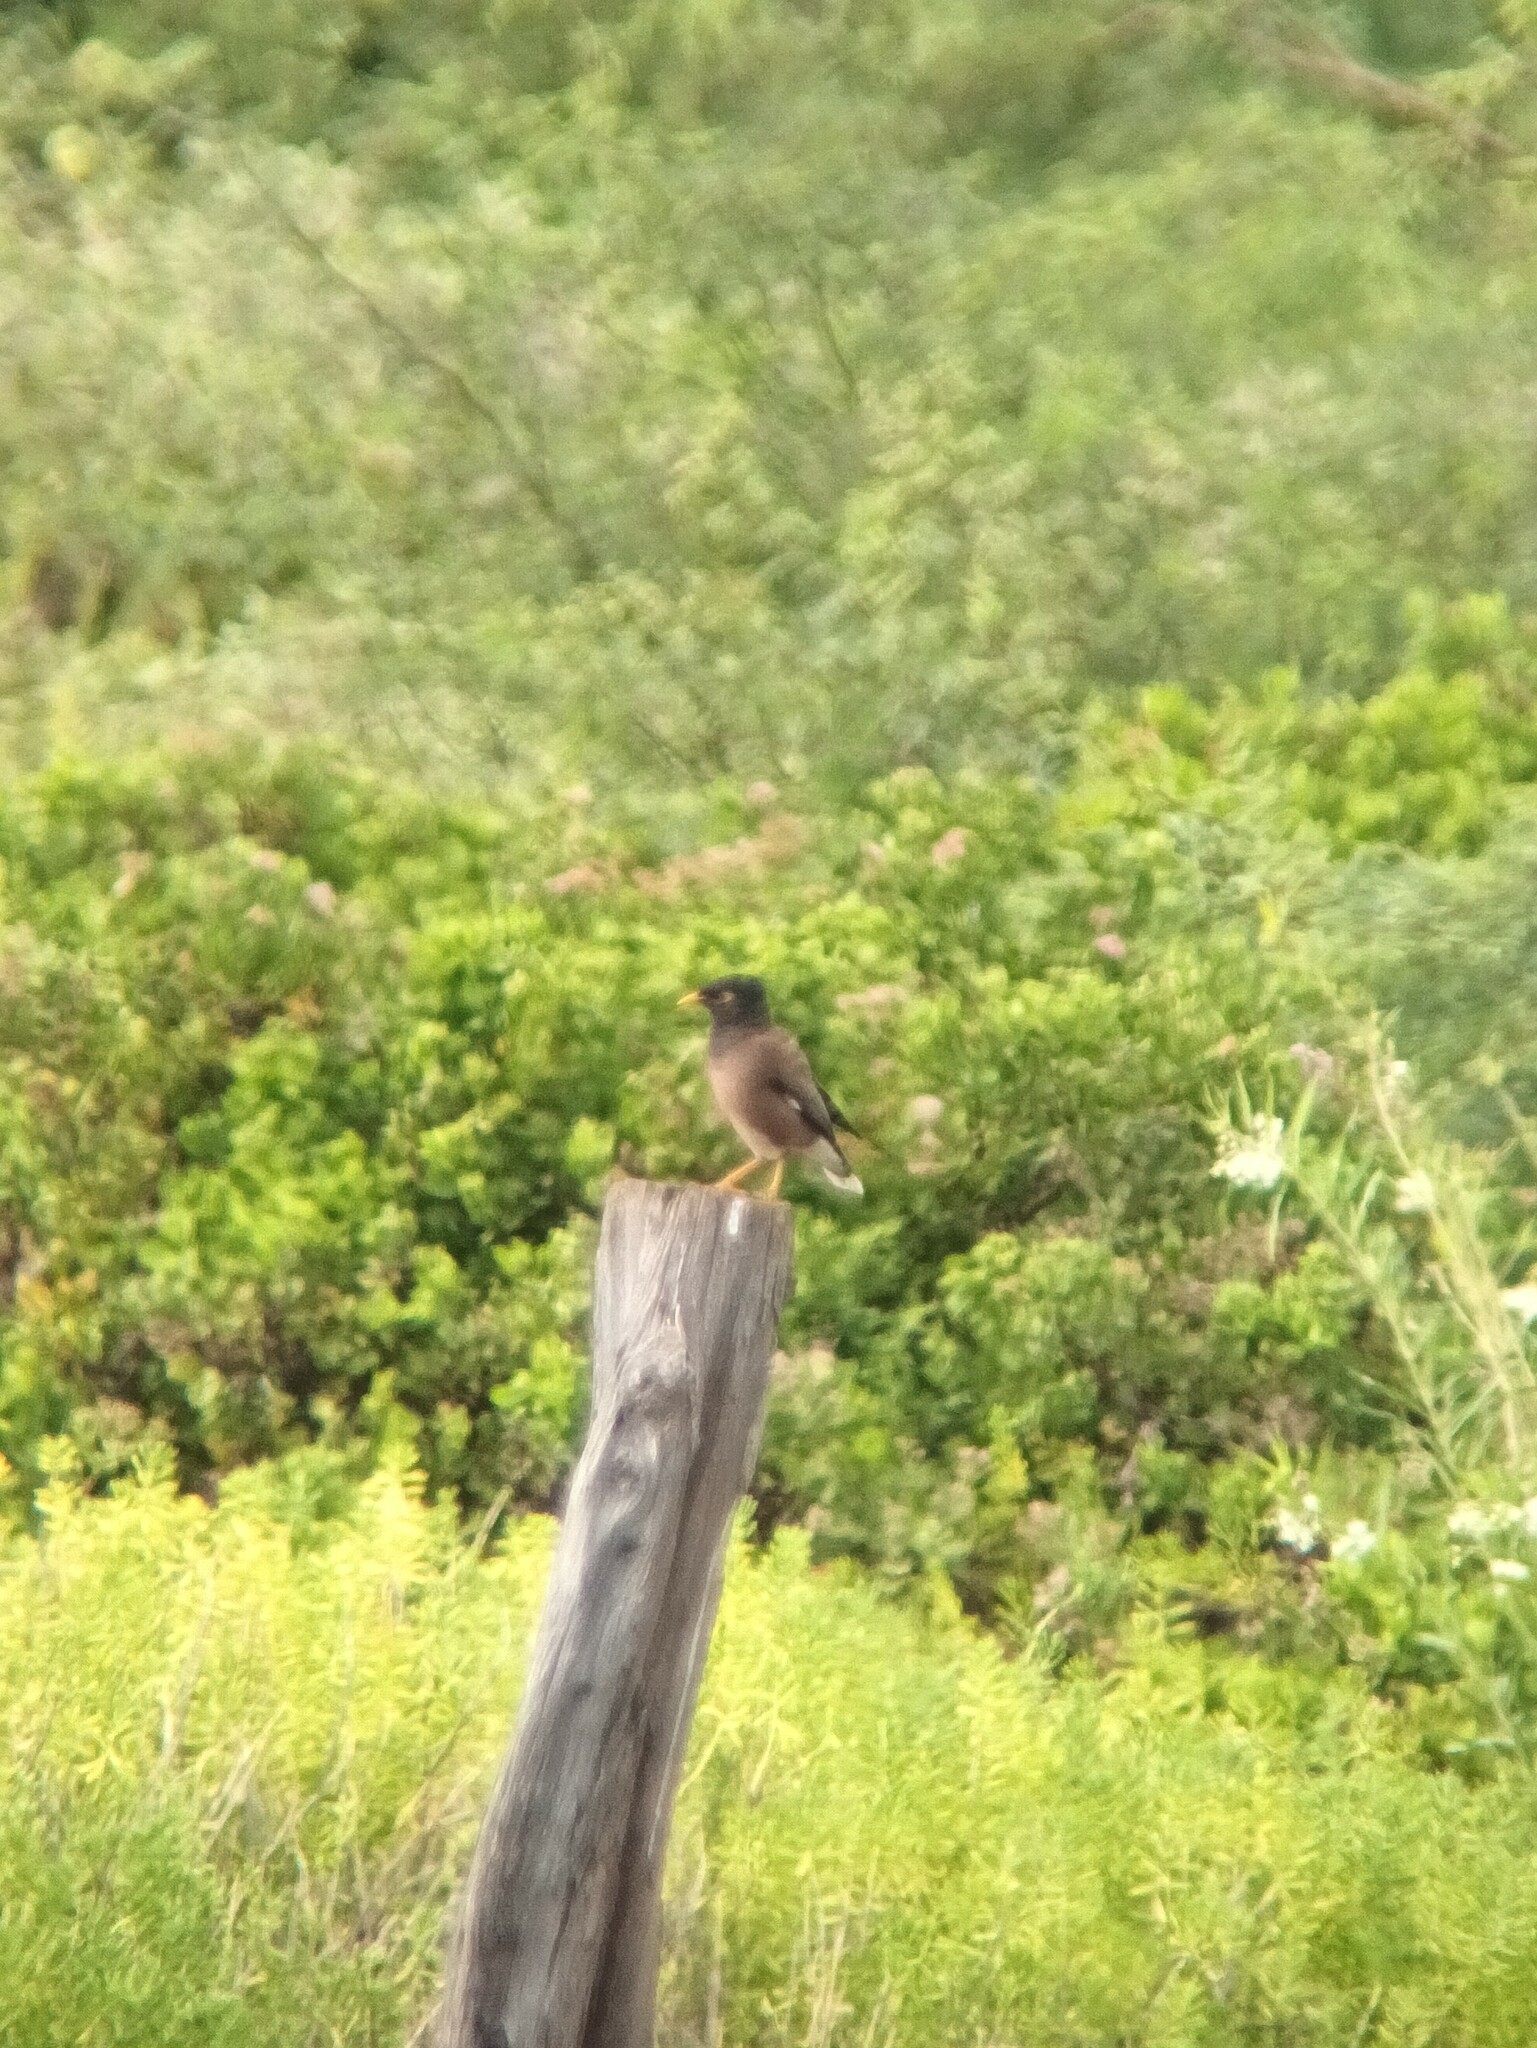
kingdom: Animalia
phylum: Chordata
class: Aves
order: Passeriformes
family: Sturnidae
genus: Acridotheres
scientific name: Acridotheres tristis
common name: Common myna
